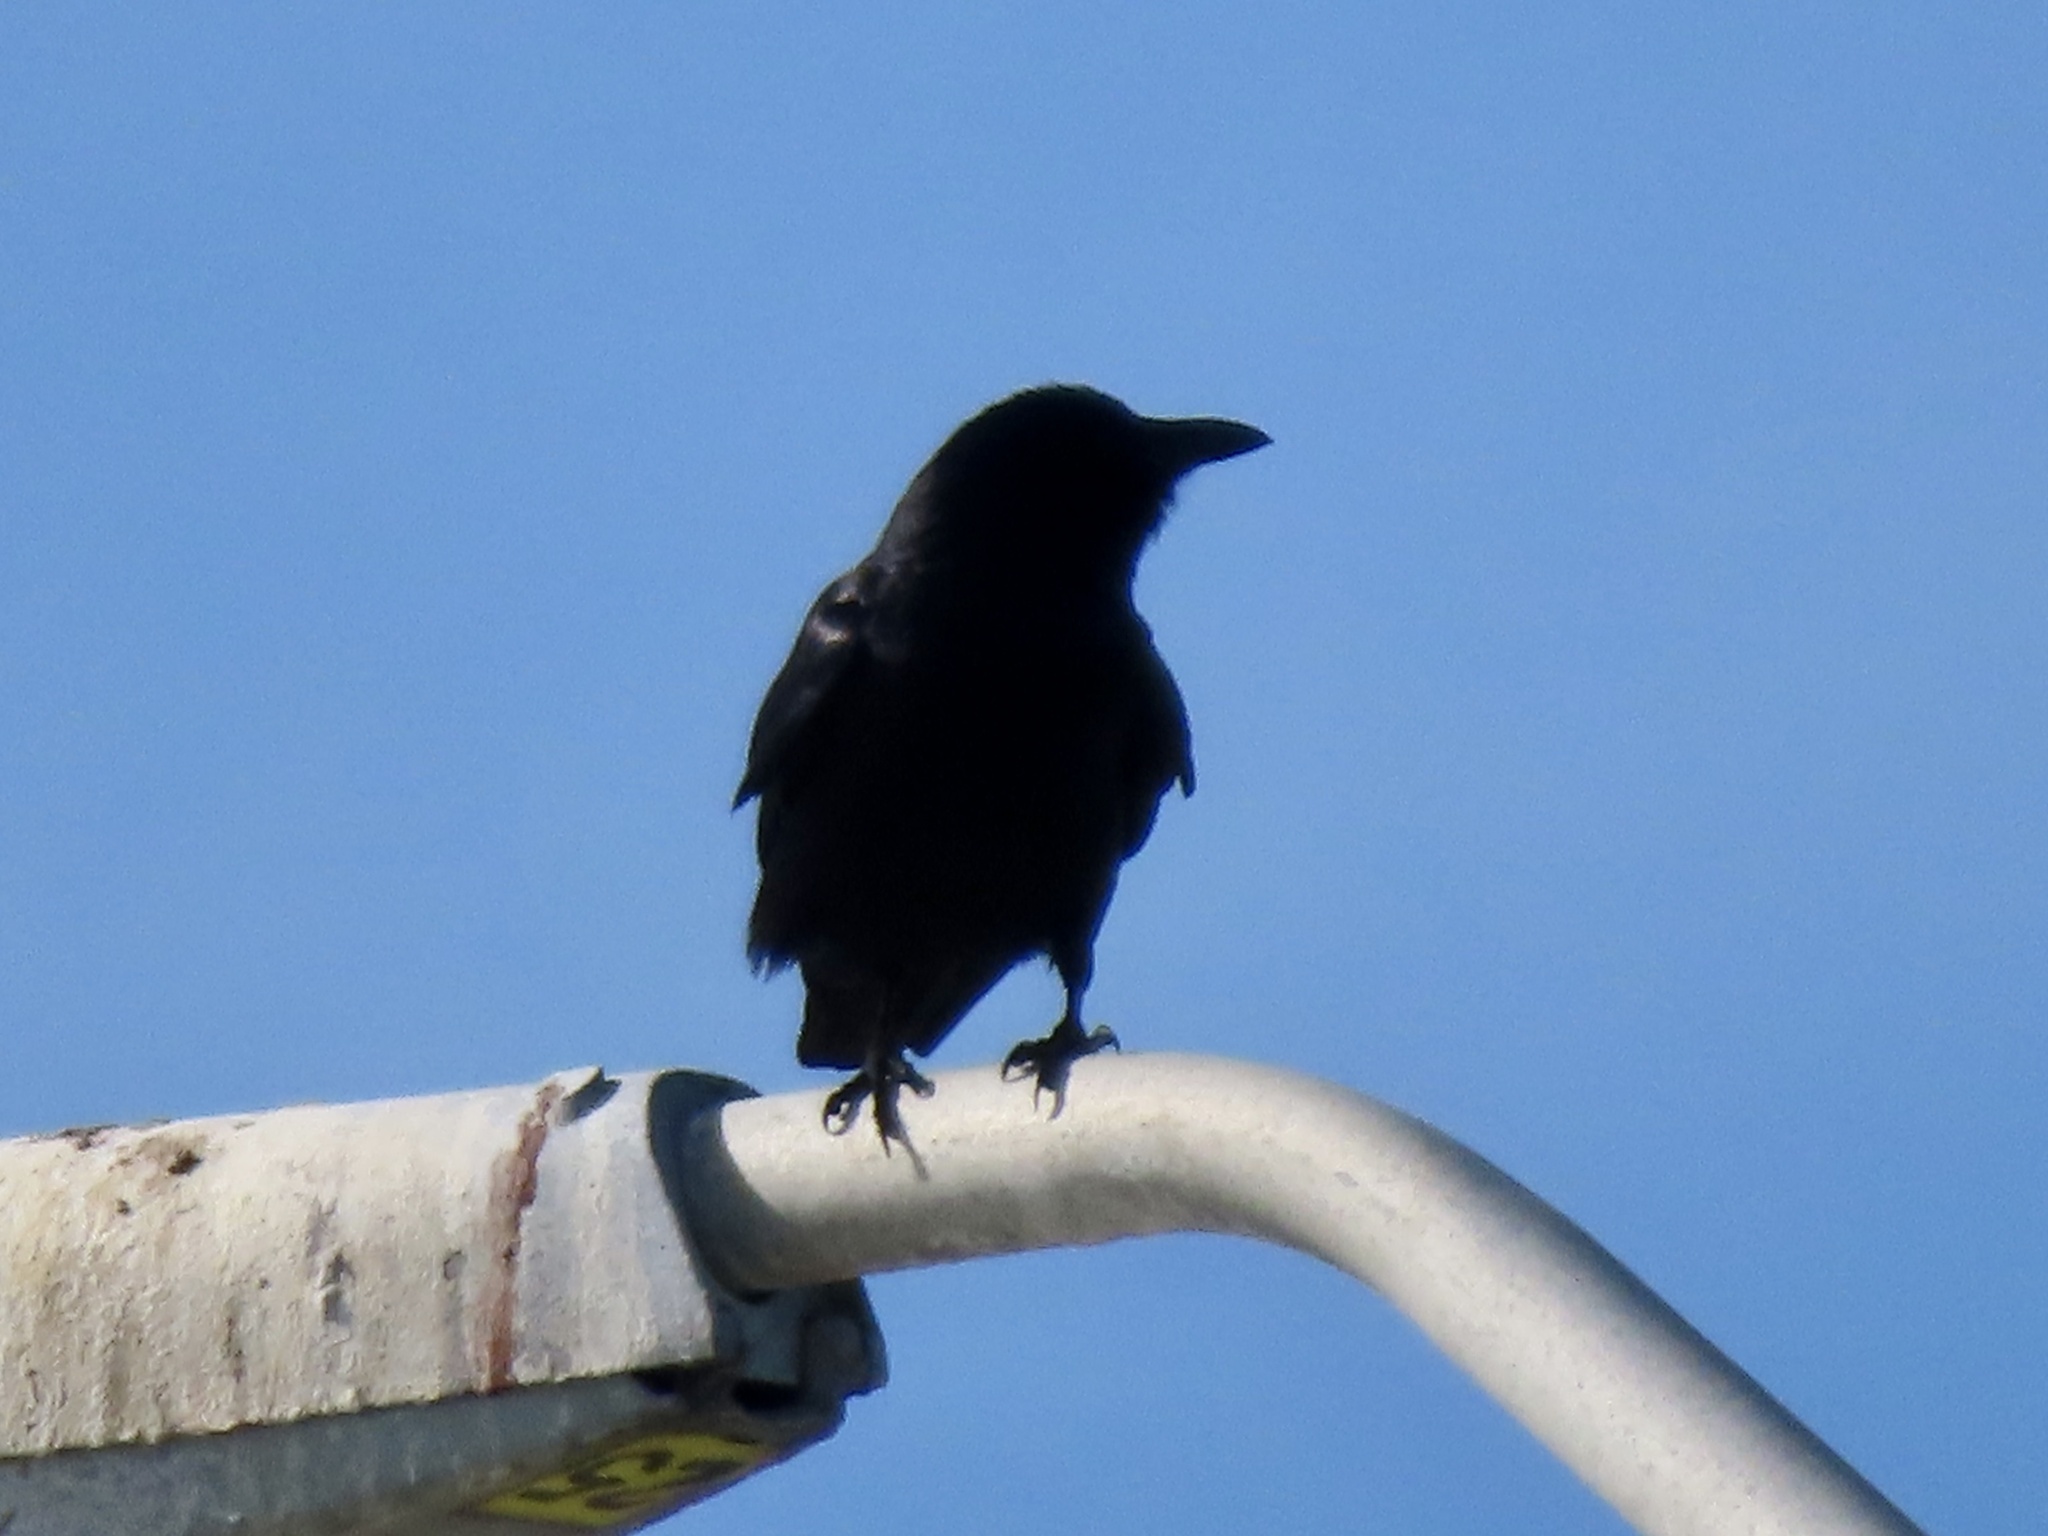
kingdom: Animalia
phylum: Chordata
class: Aves
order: Passeriformes
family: Corvidae
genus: Corvus
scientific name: Corvus ossifragus
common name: Fish crow
